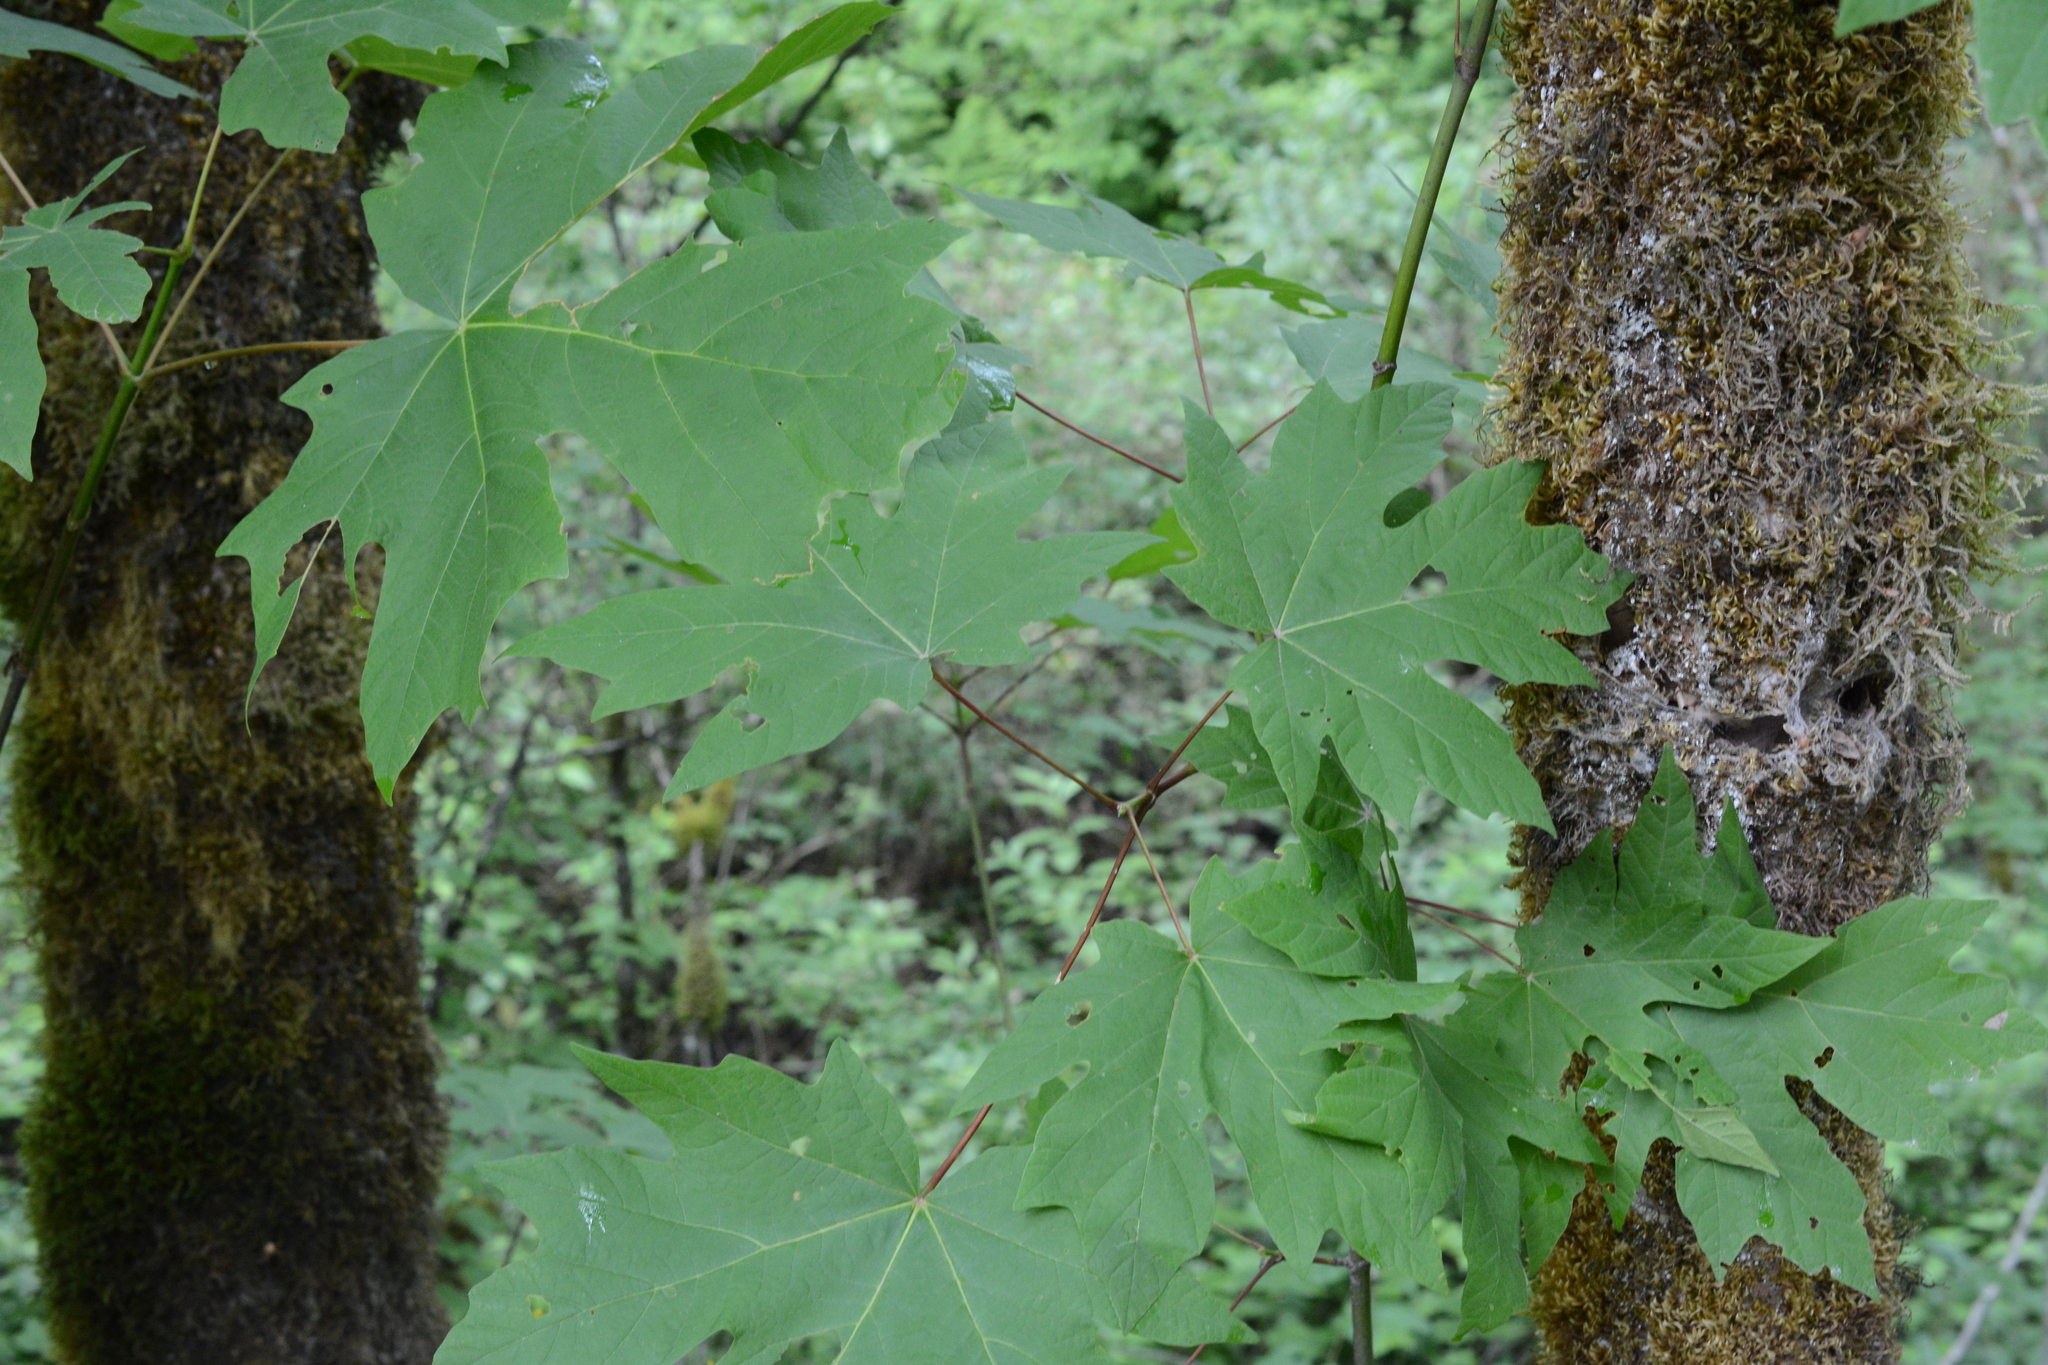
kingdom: Plantae
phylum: Tracheophyta
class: Magnoliopsida
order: Sapindales
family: Sapindaceae
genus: Acer
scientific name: Acer macrophyllum
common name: Oregon maple
